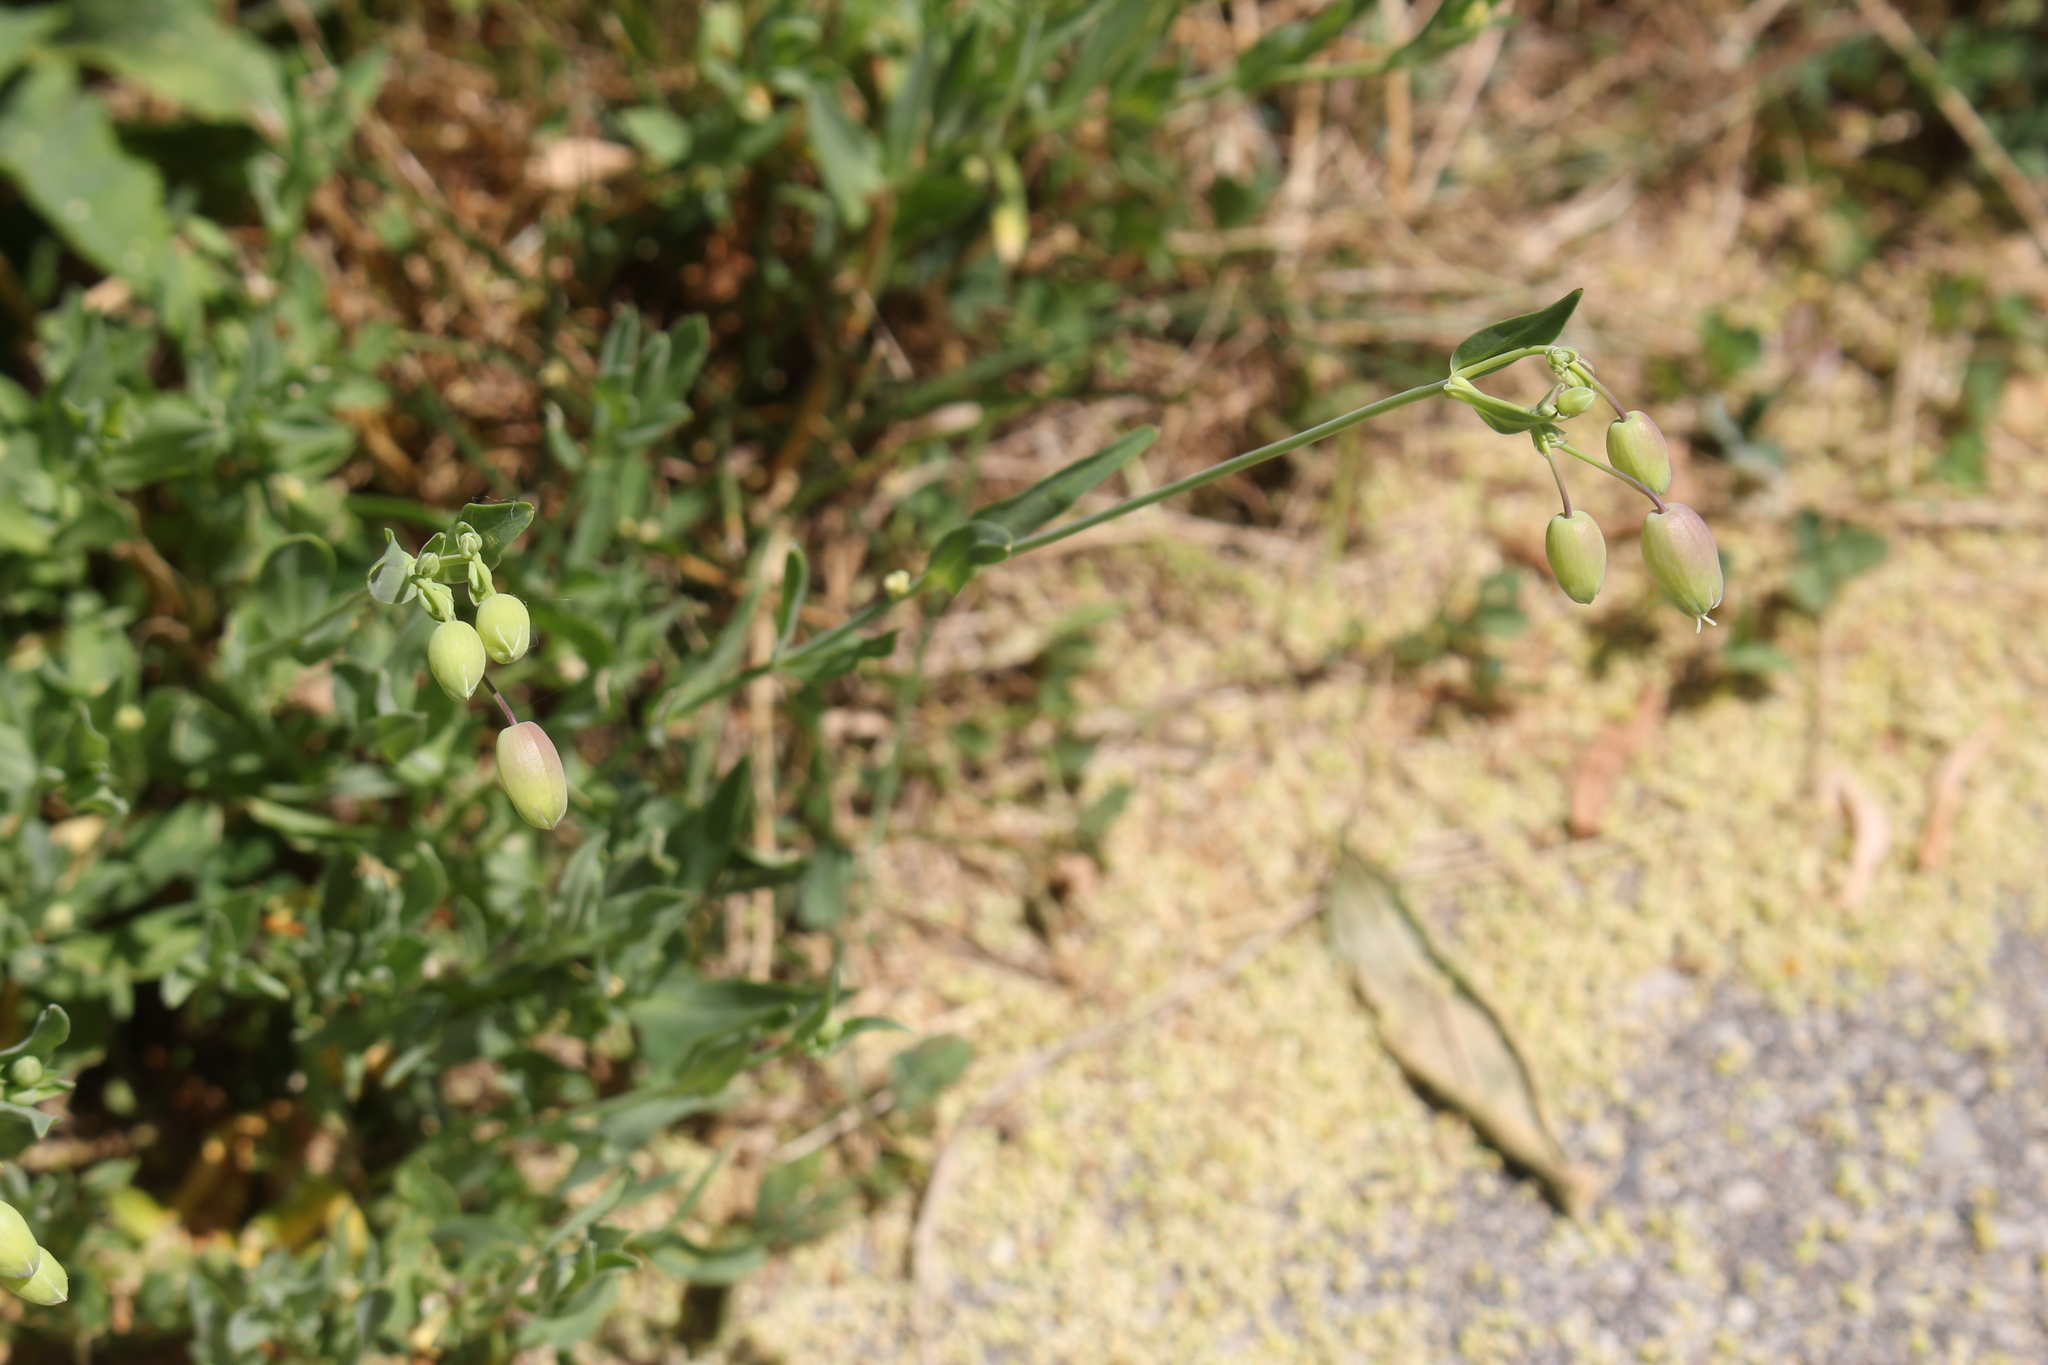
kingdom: Plantae
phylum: Tracheophyta
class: Magnoliopsida
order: Caryophyllales
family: Caryophyllaceae
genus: Silene
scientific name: Silene vulgaris
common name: Bladder campion
